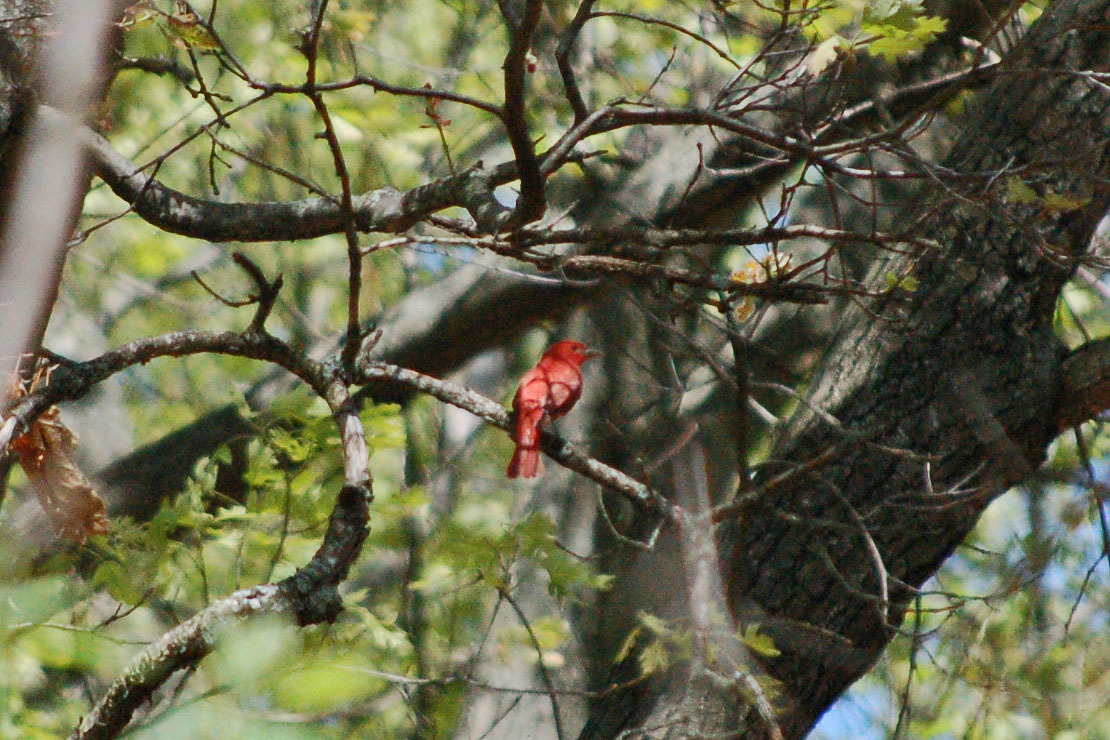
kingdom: Animalia
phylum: Chordata
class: Aves
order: Passeriformes
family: Cardinalidae
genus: Piranga
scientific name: Piranga rubra
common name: Summer tanager
